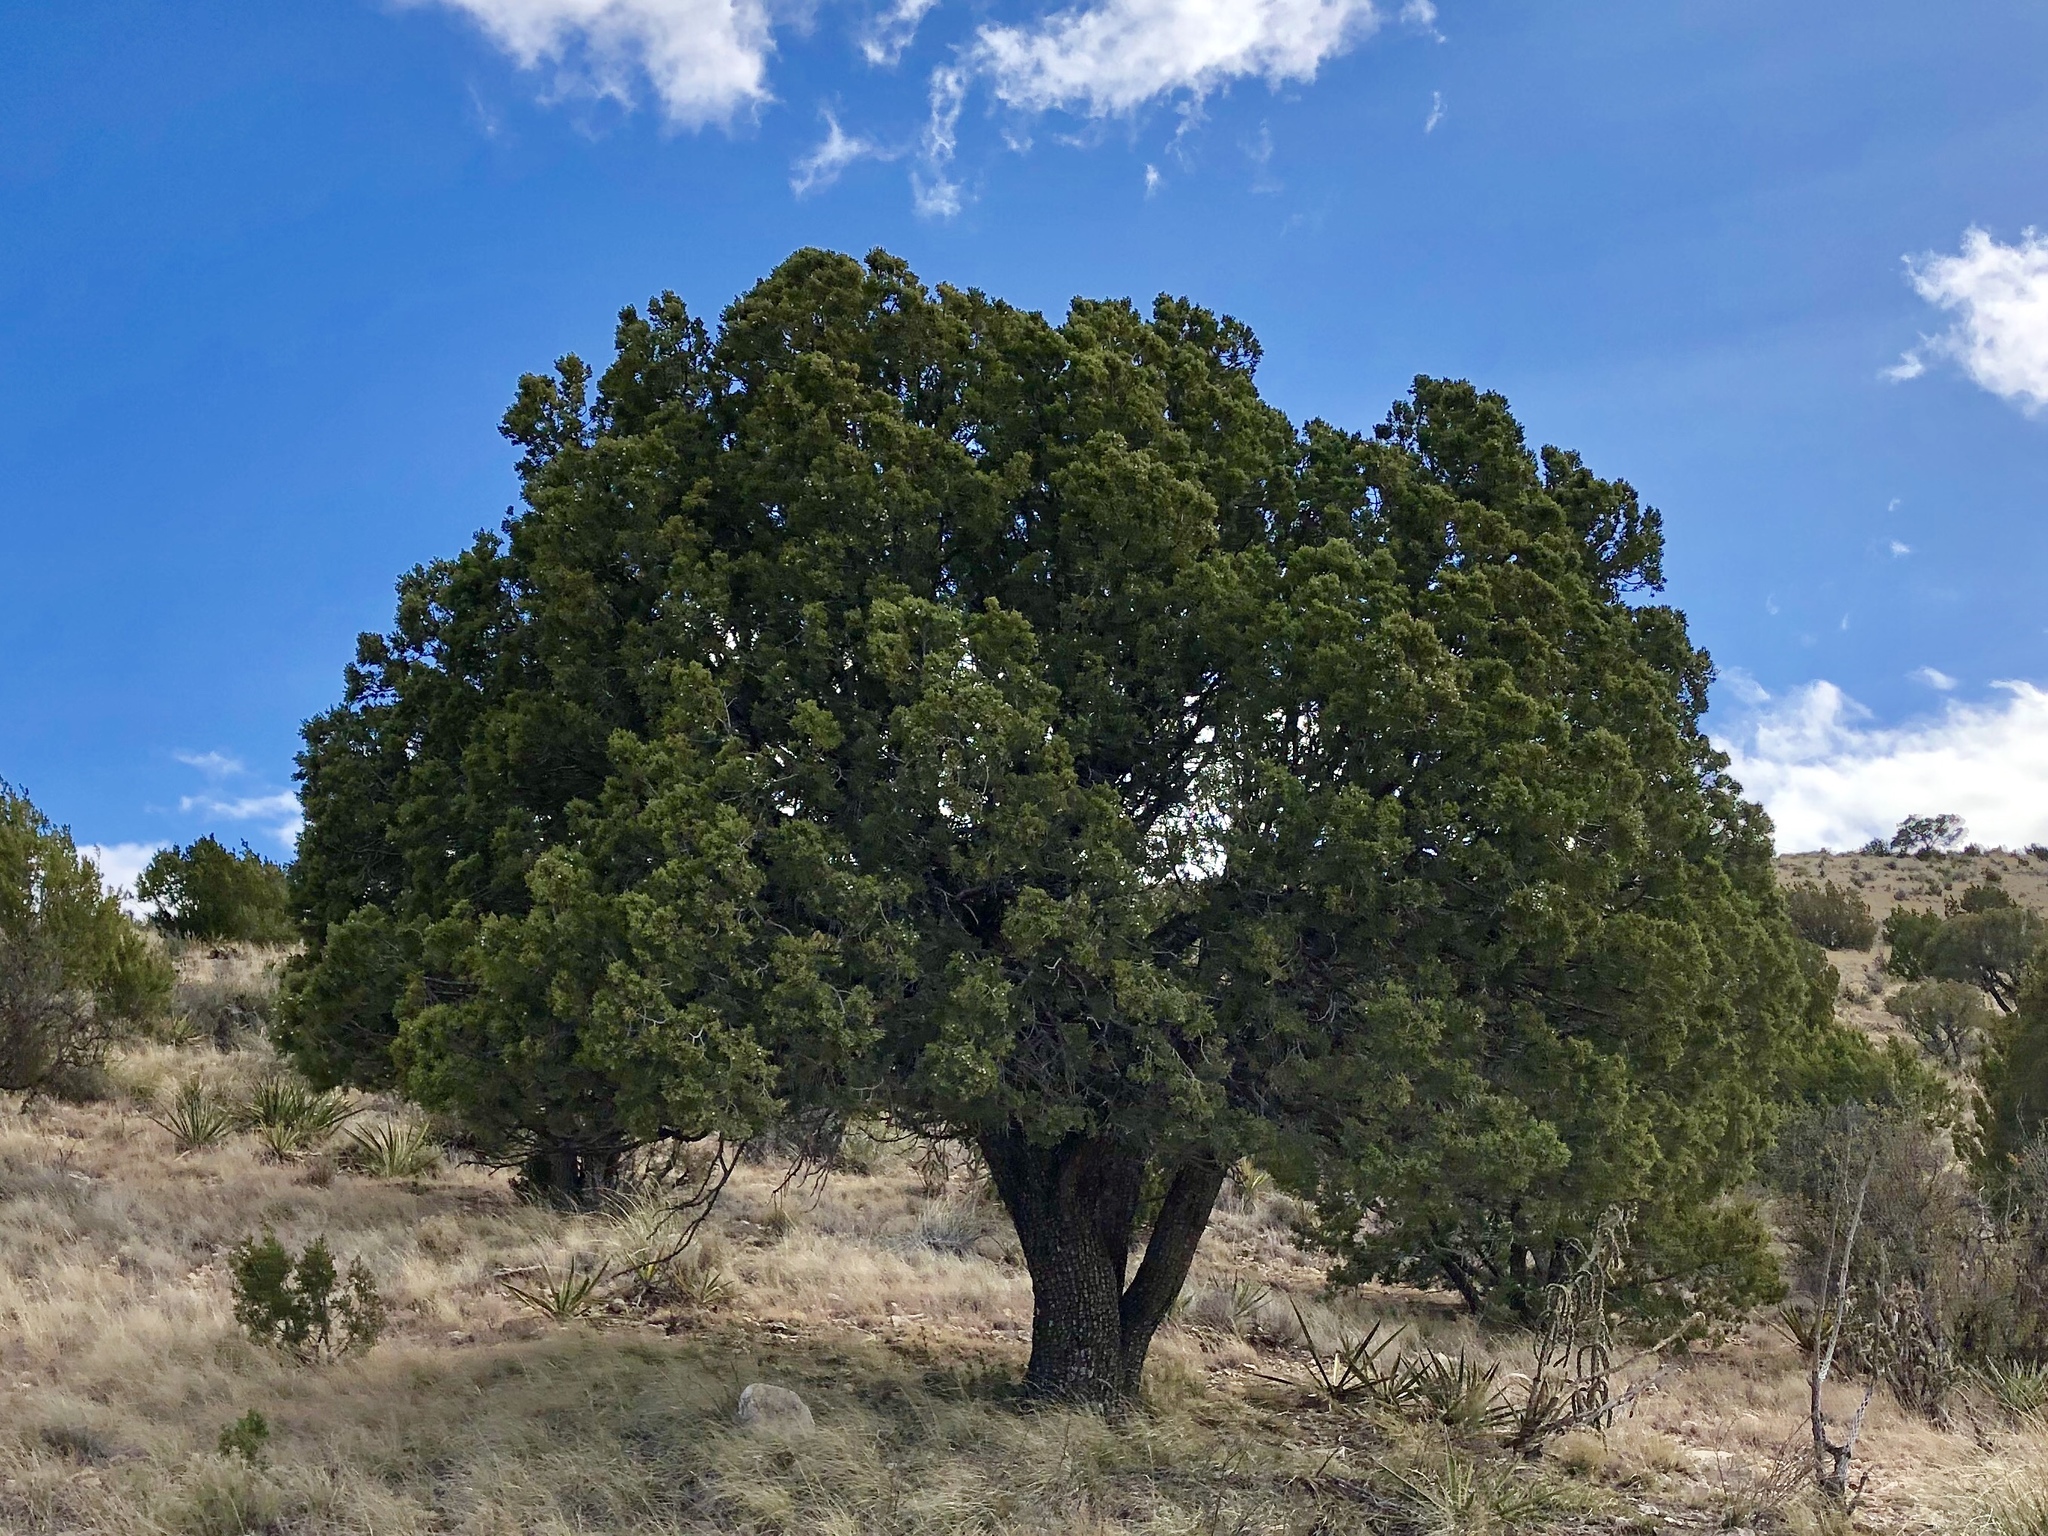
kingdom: Plantae
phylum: Tracheophyta
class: Pinopsida
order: Pinales
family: Cupressaceae
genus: Juniperus
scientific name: Juniperus deppeana
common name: Alligator juniper
